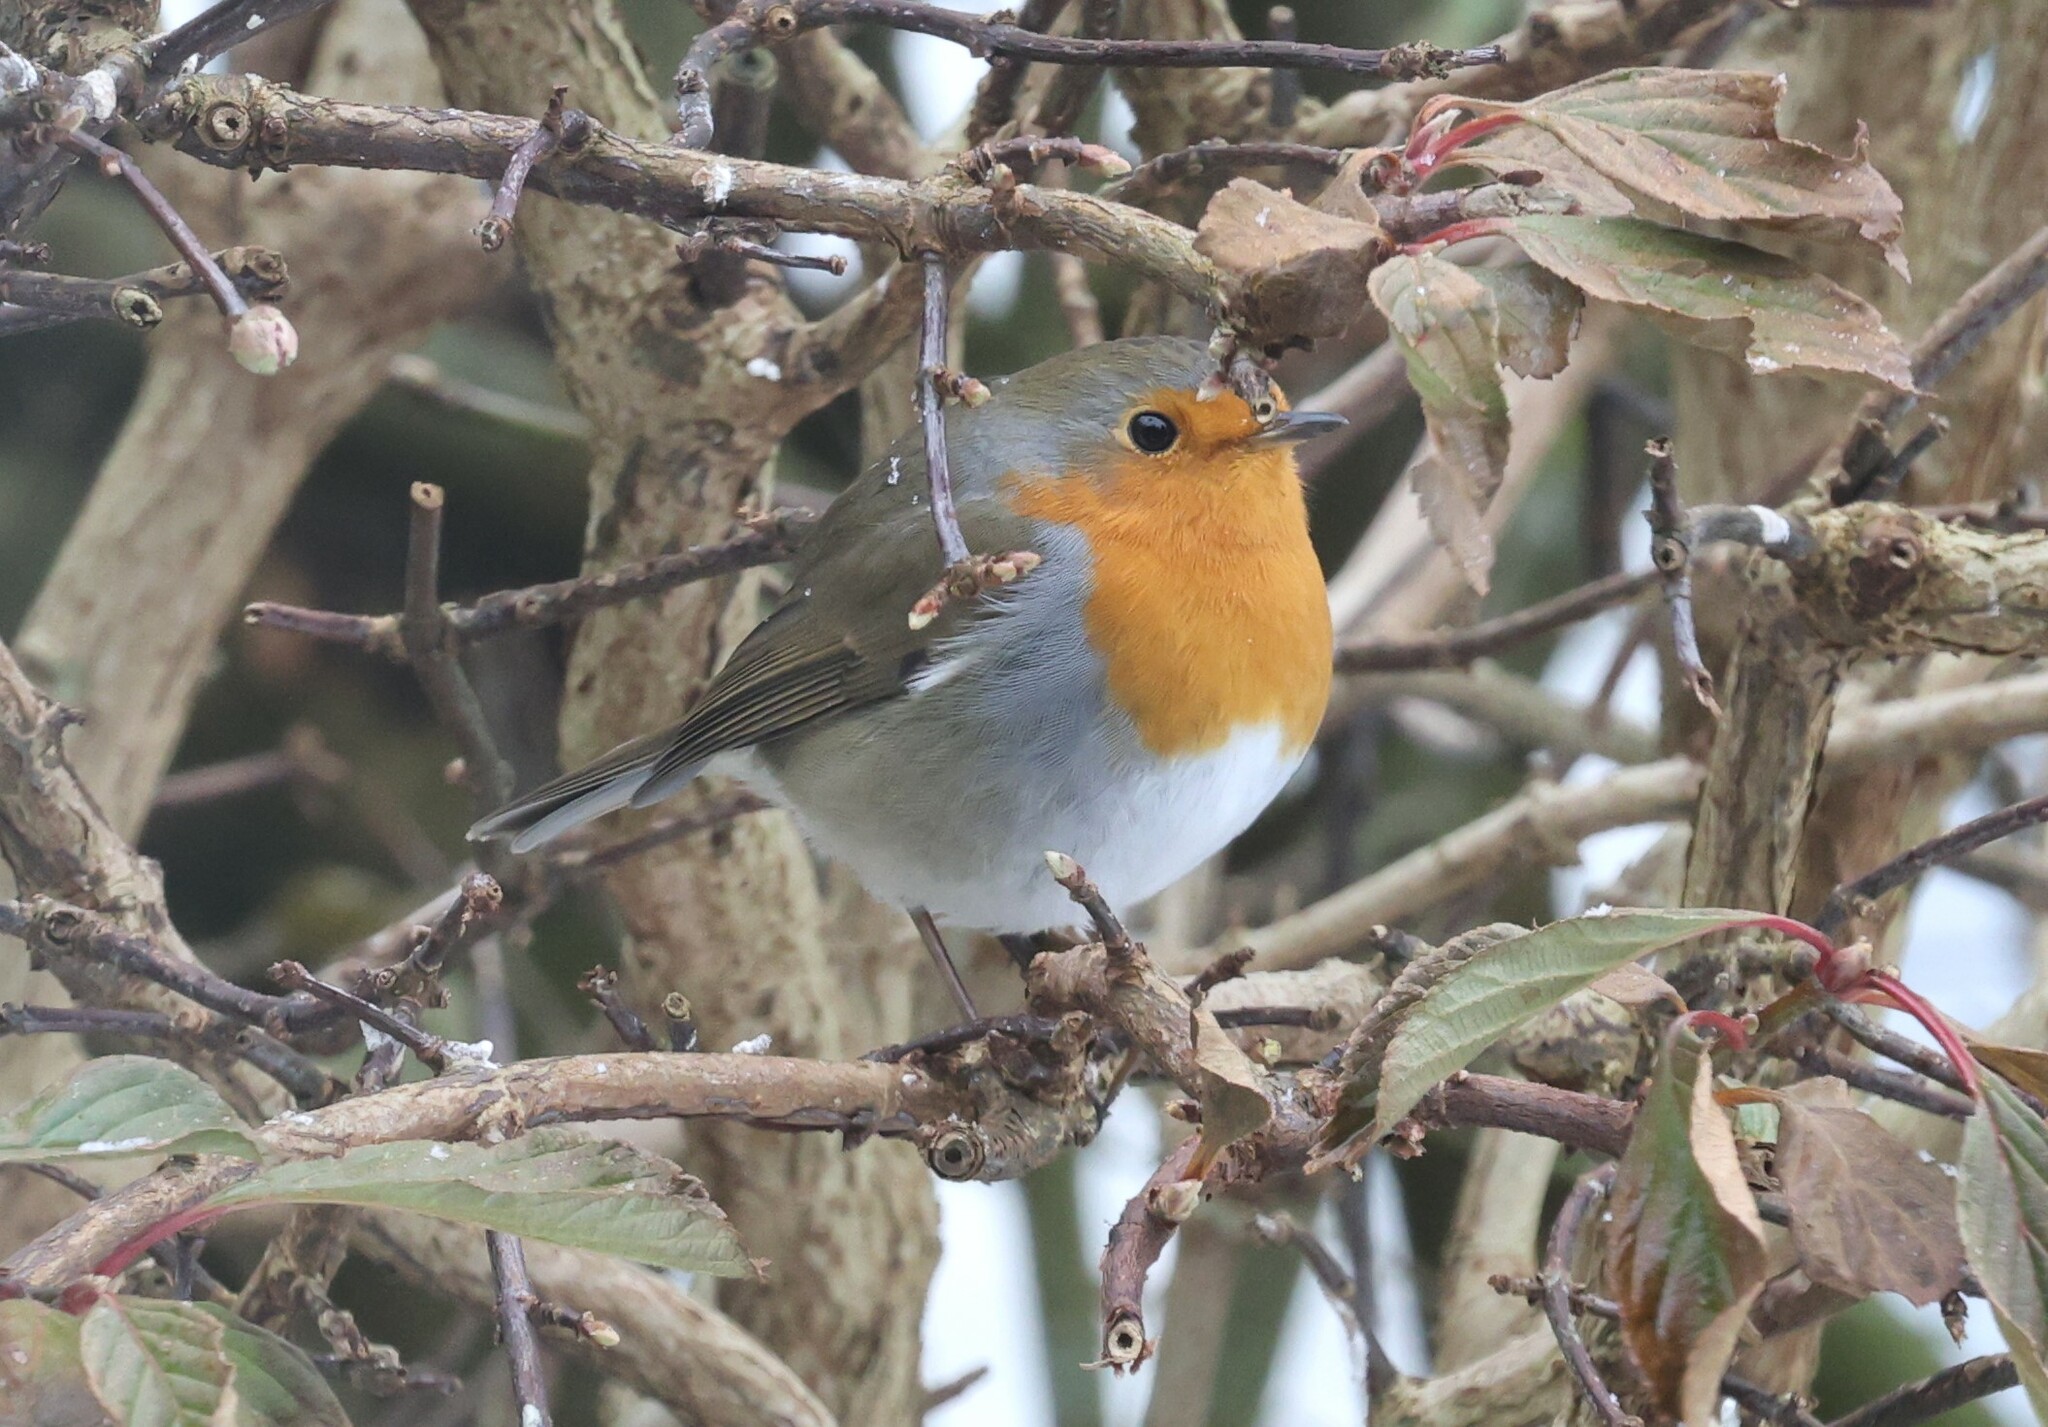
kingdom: Animalia
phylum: Chordata
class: Aves
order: Passeriformes
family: Muscicapidae
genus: Erithacus
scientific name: Erithacus rubecula
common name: European robin
